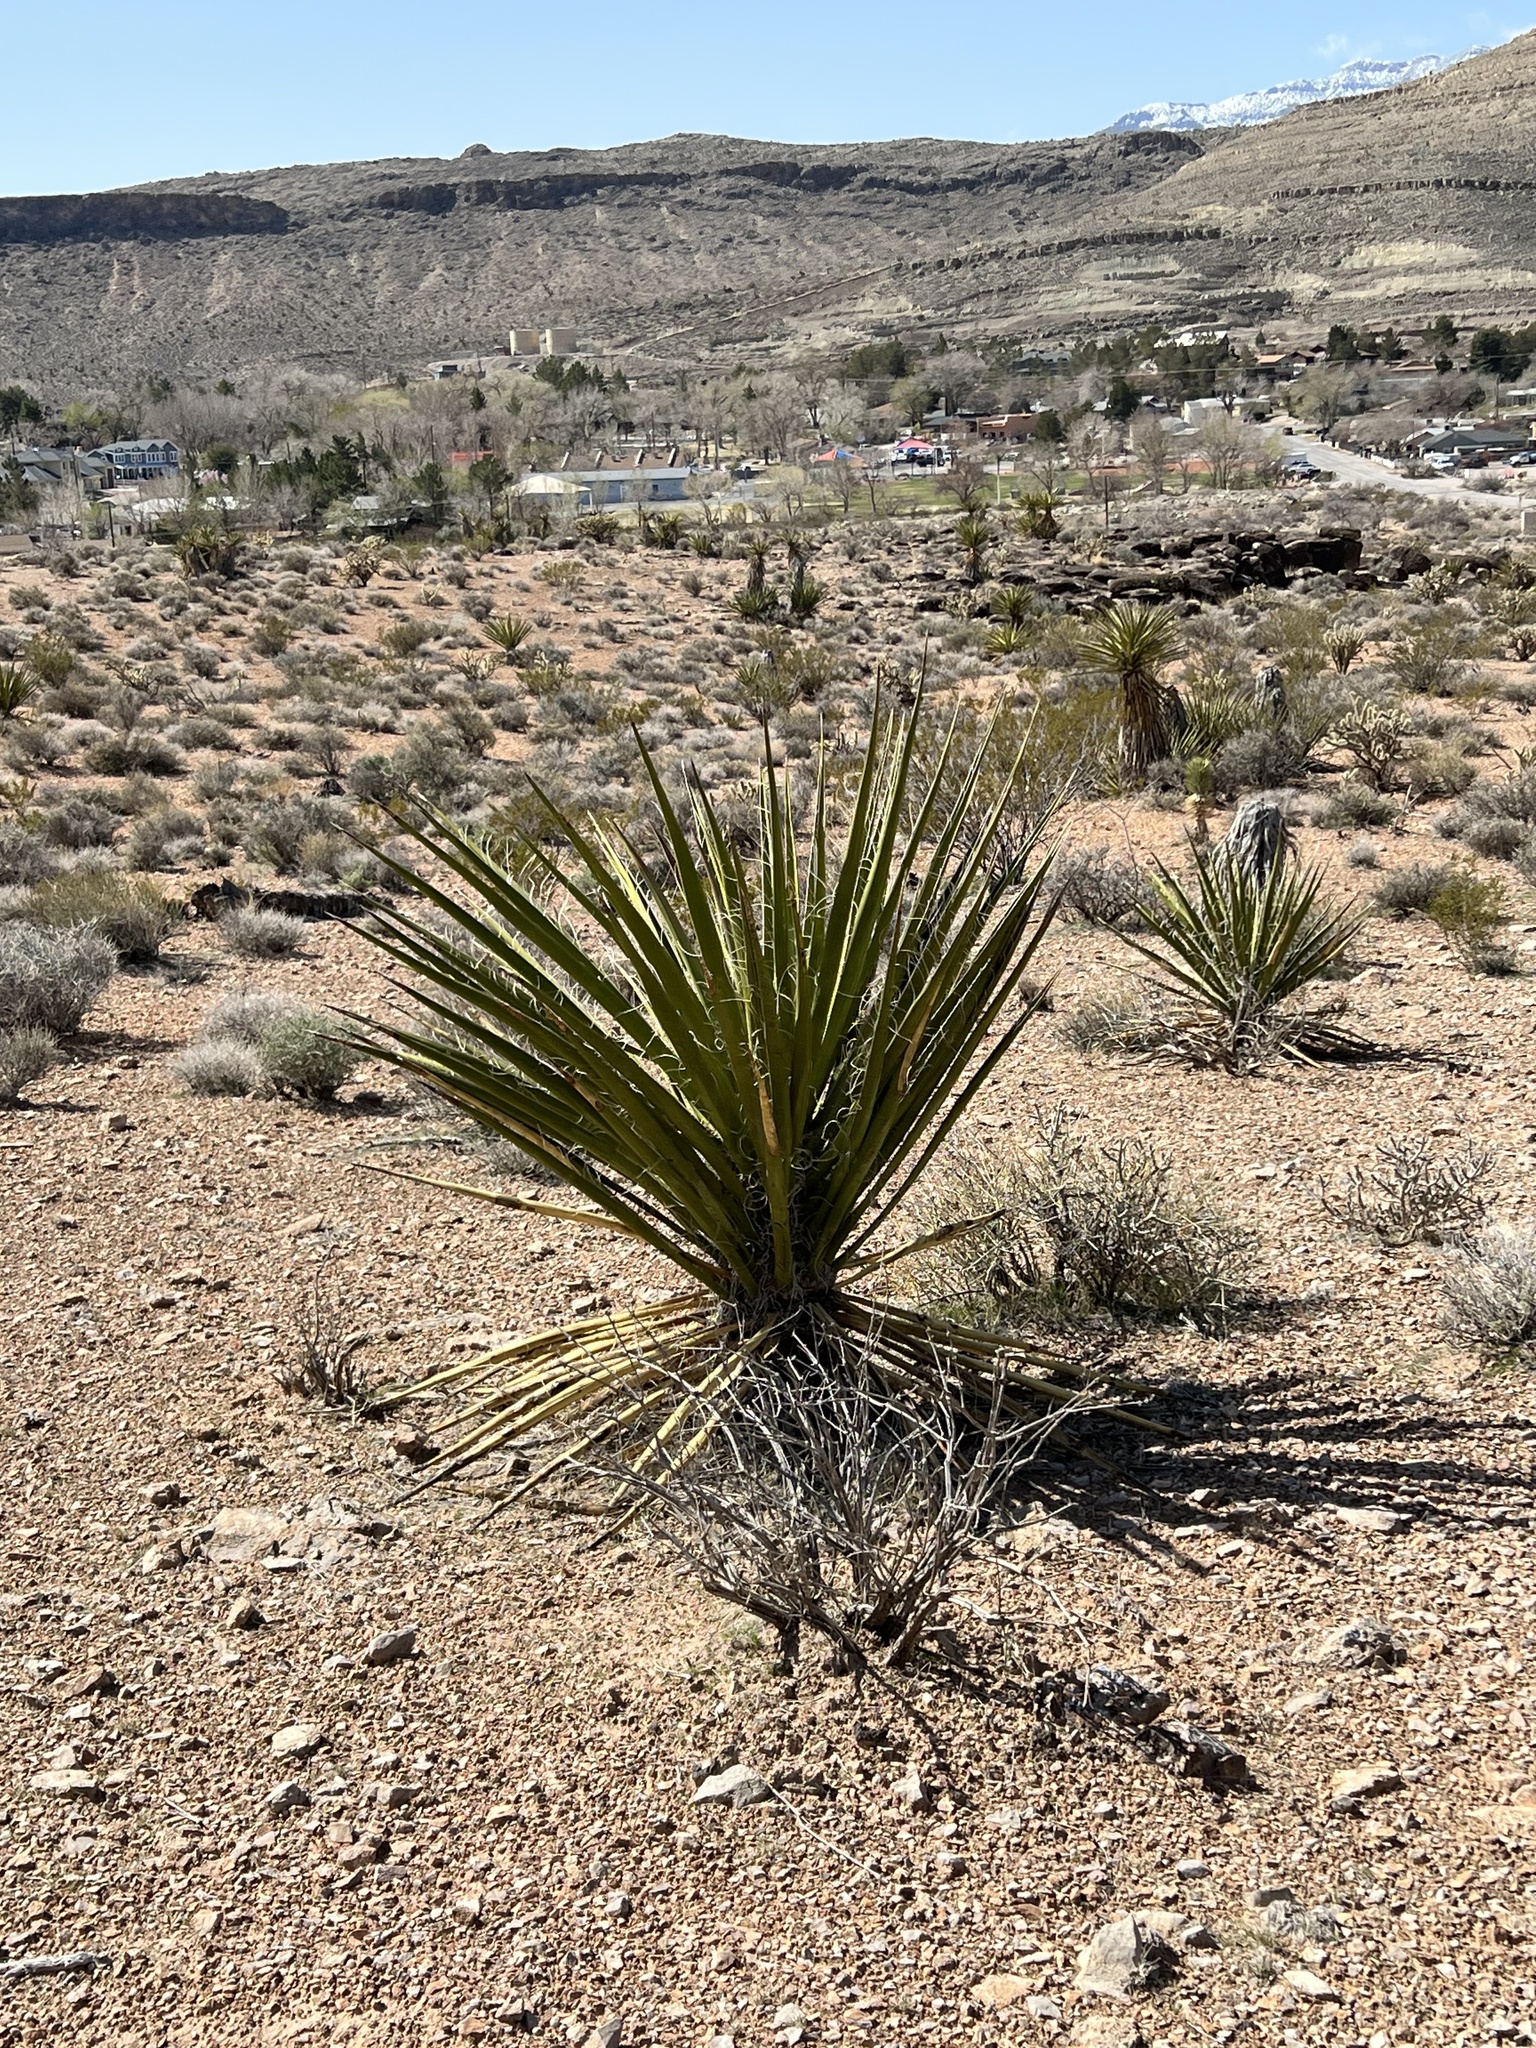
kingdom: Plantae
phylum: Tracheophyta
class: Liliopsida
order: Asparagales
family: Asparagaceae
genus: Yucca
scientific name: Yucca schidigera
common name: Mojave yucca
